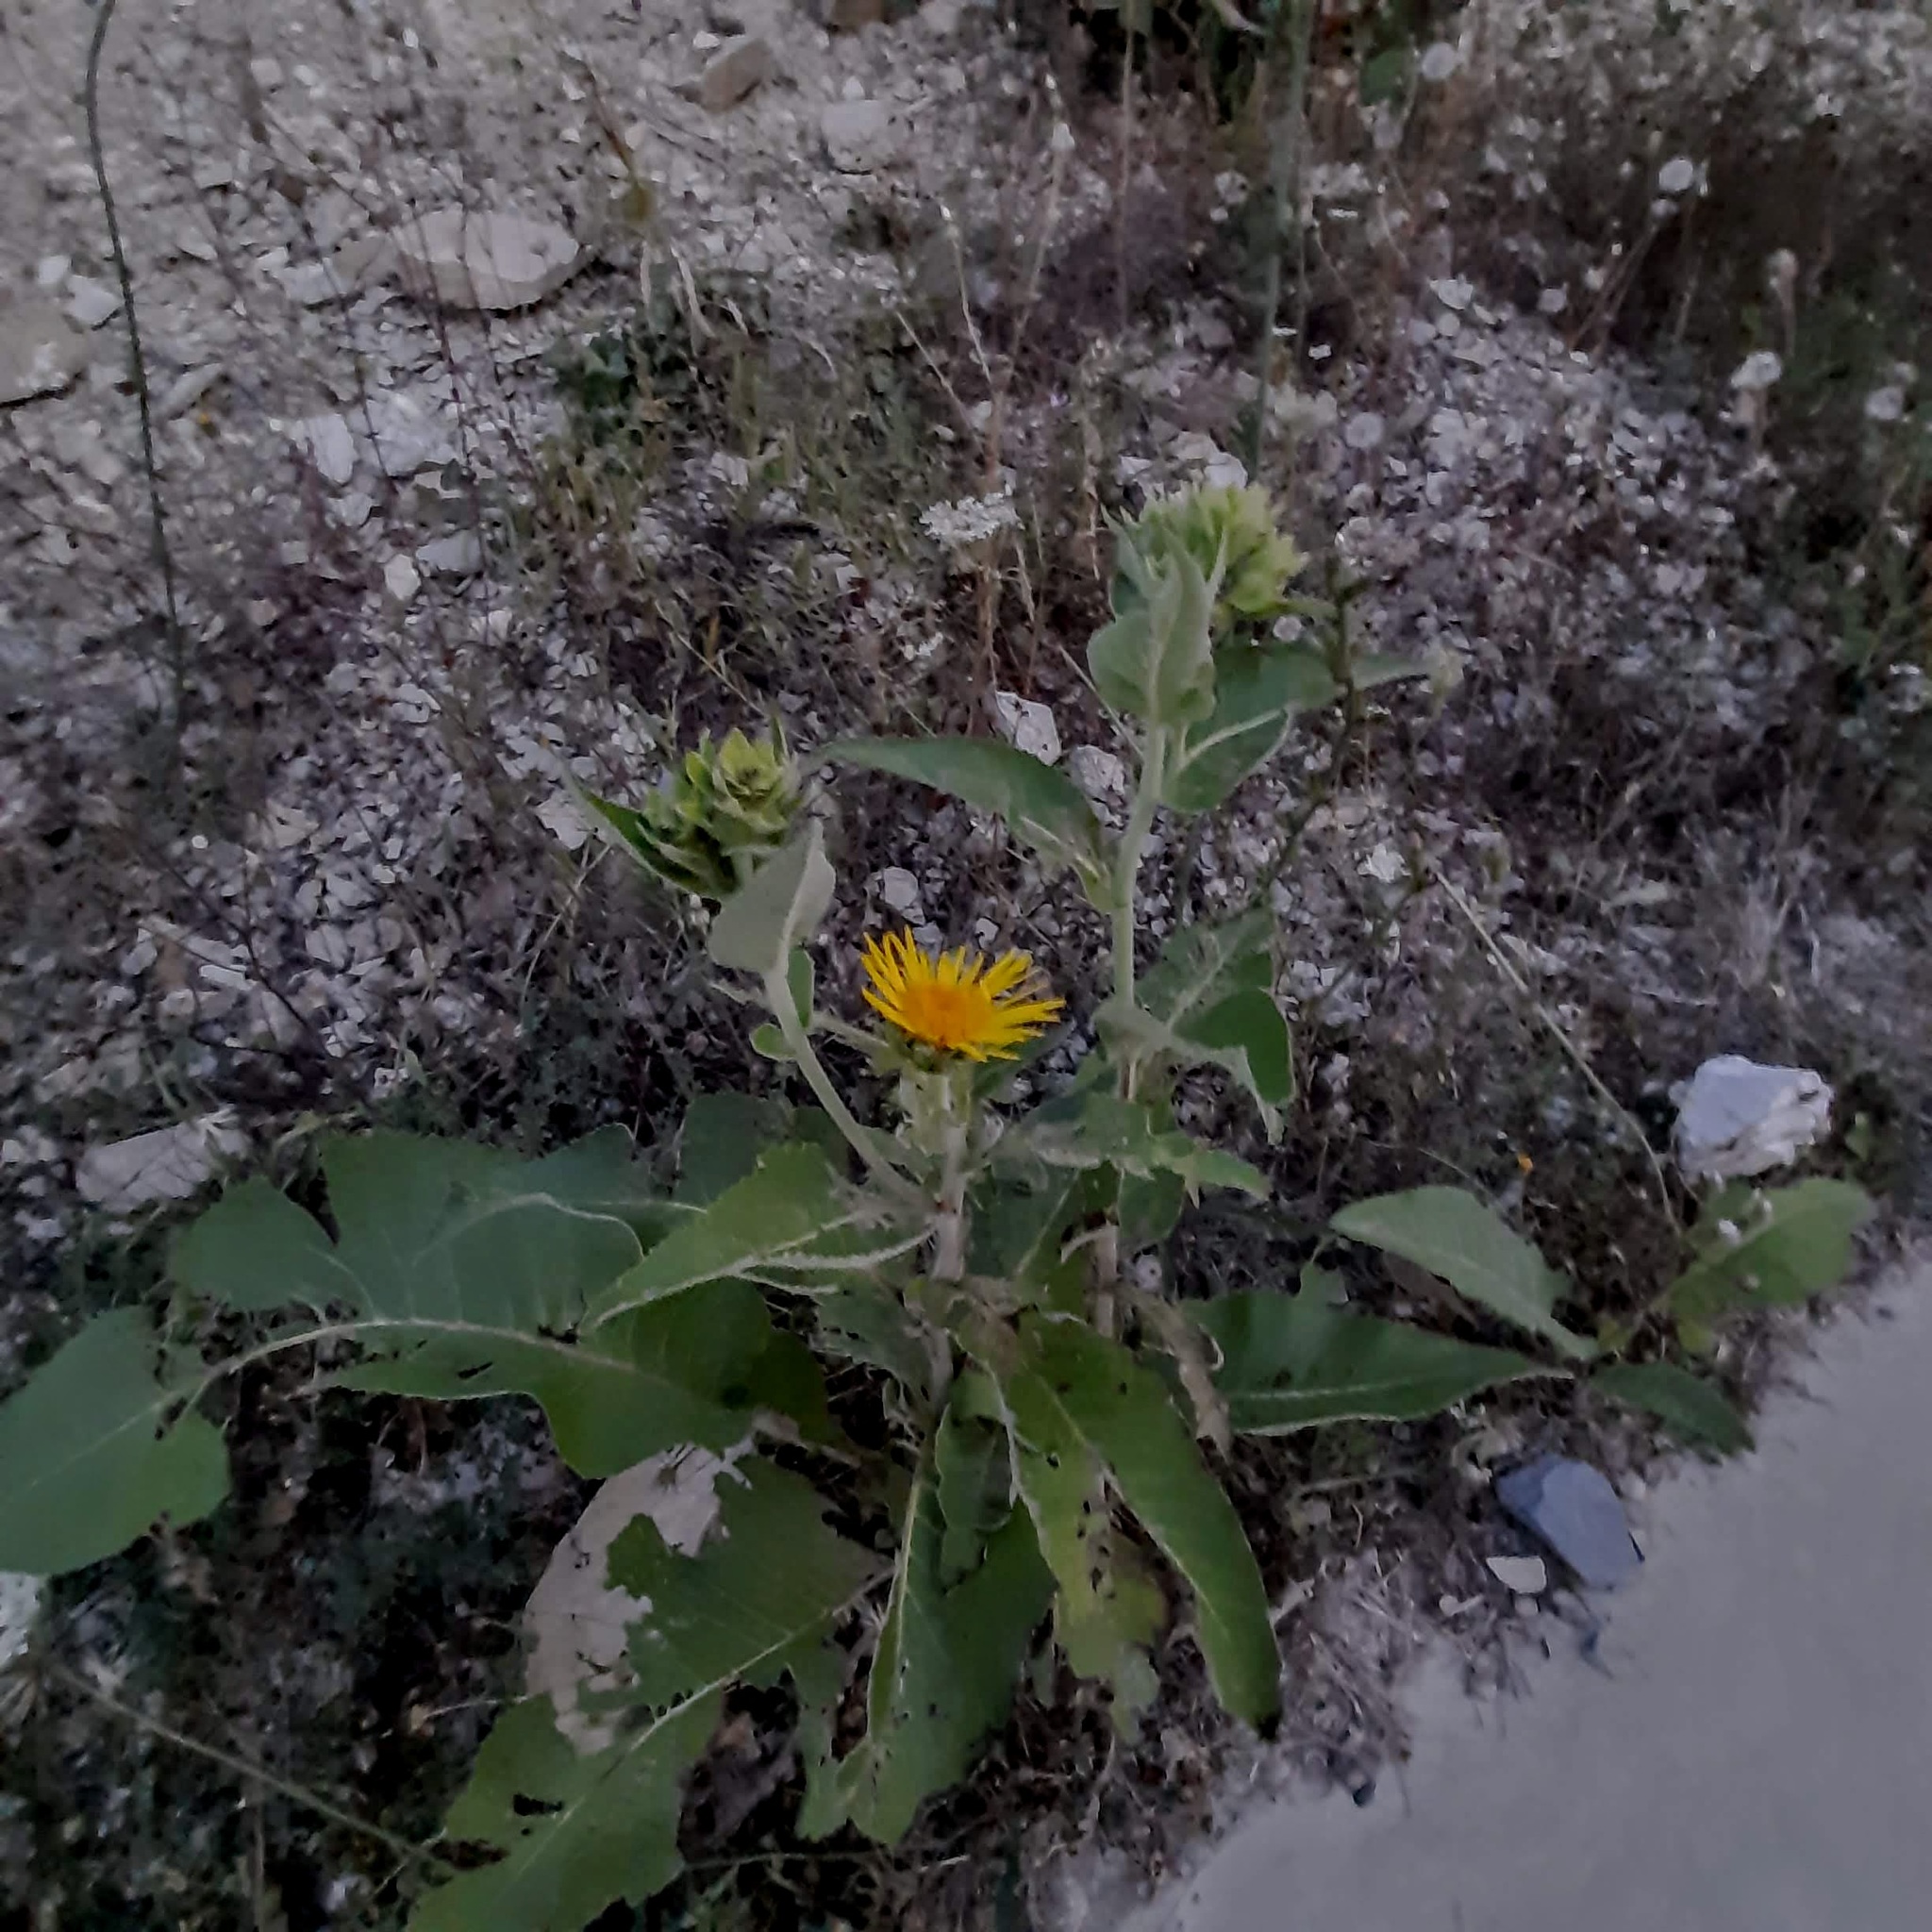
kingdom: Plantae
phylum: Tracheophyta
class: Magnoliopsida
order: Asterales
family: Asteraceae
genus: Inula
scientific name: Inula helenium
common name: Elecampane
